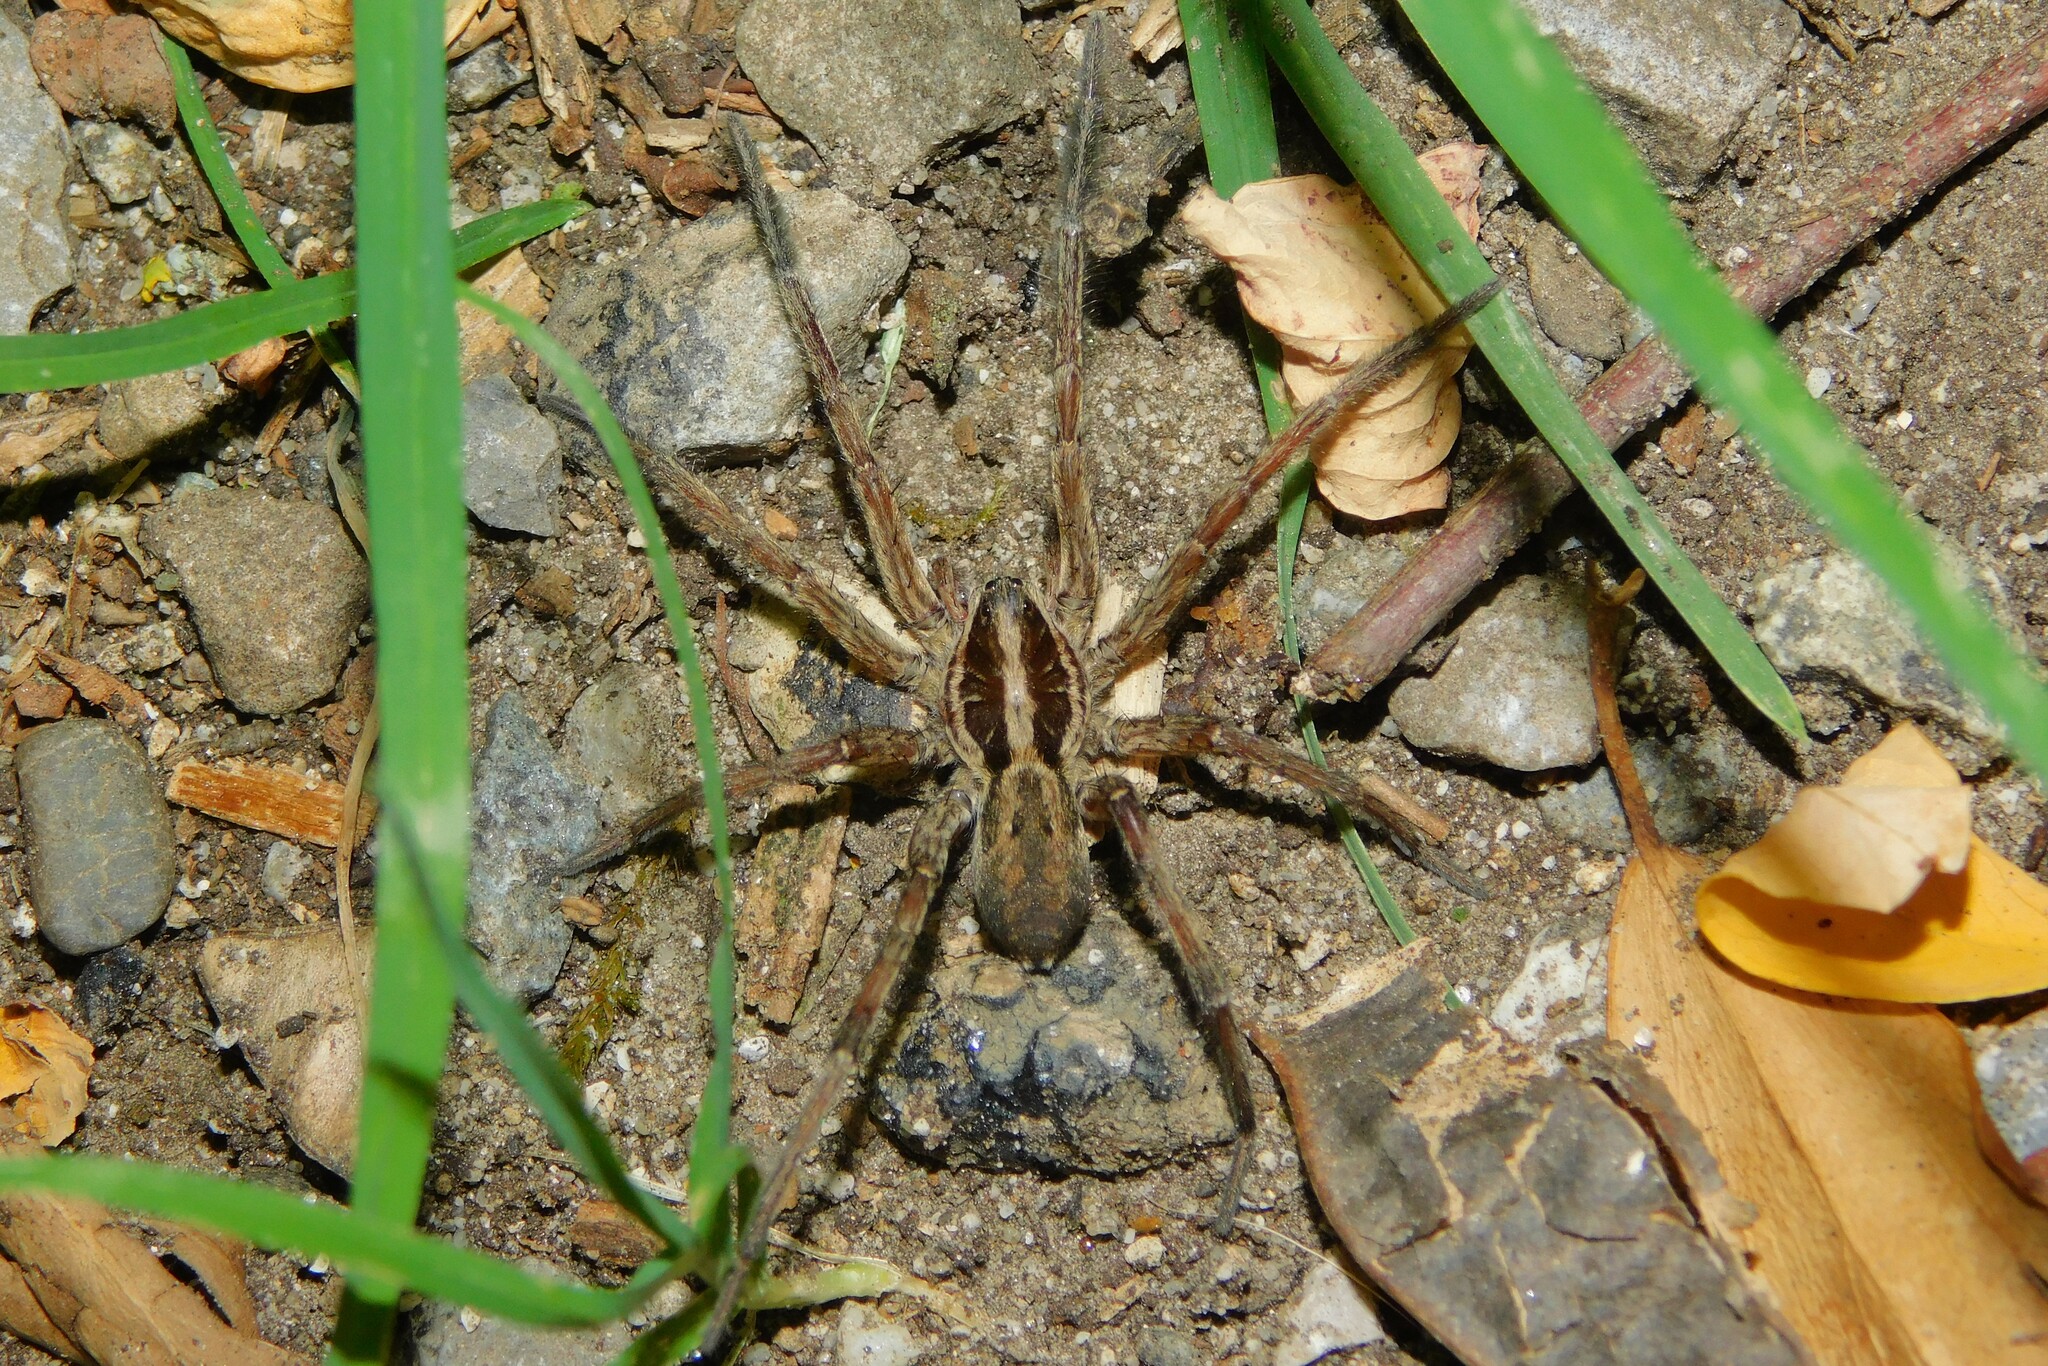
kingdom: Animalia
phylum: Arthropoda
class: Arachnida
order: Araneae
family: Lycosidae
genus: Hogna
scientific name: Hogna radiata
